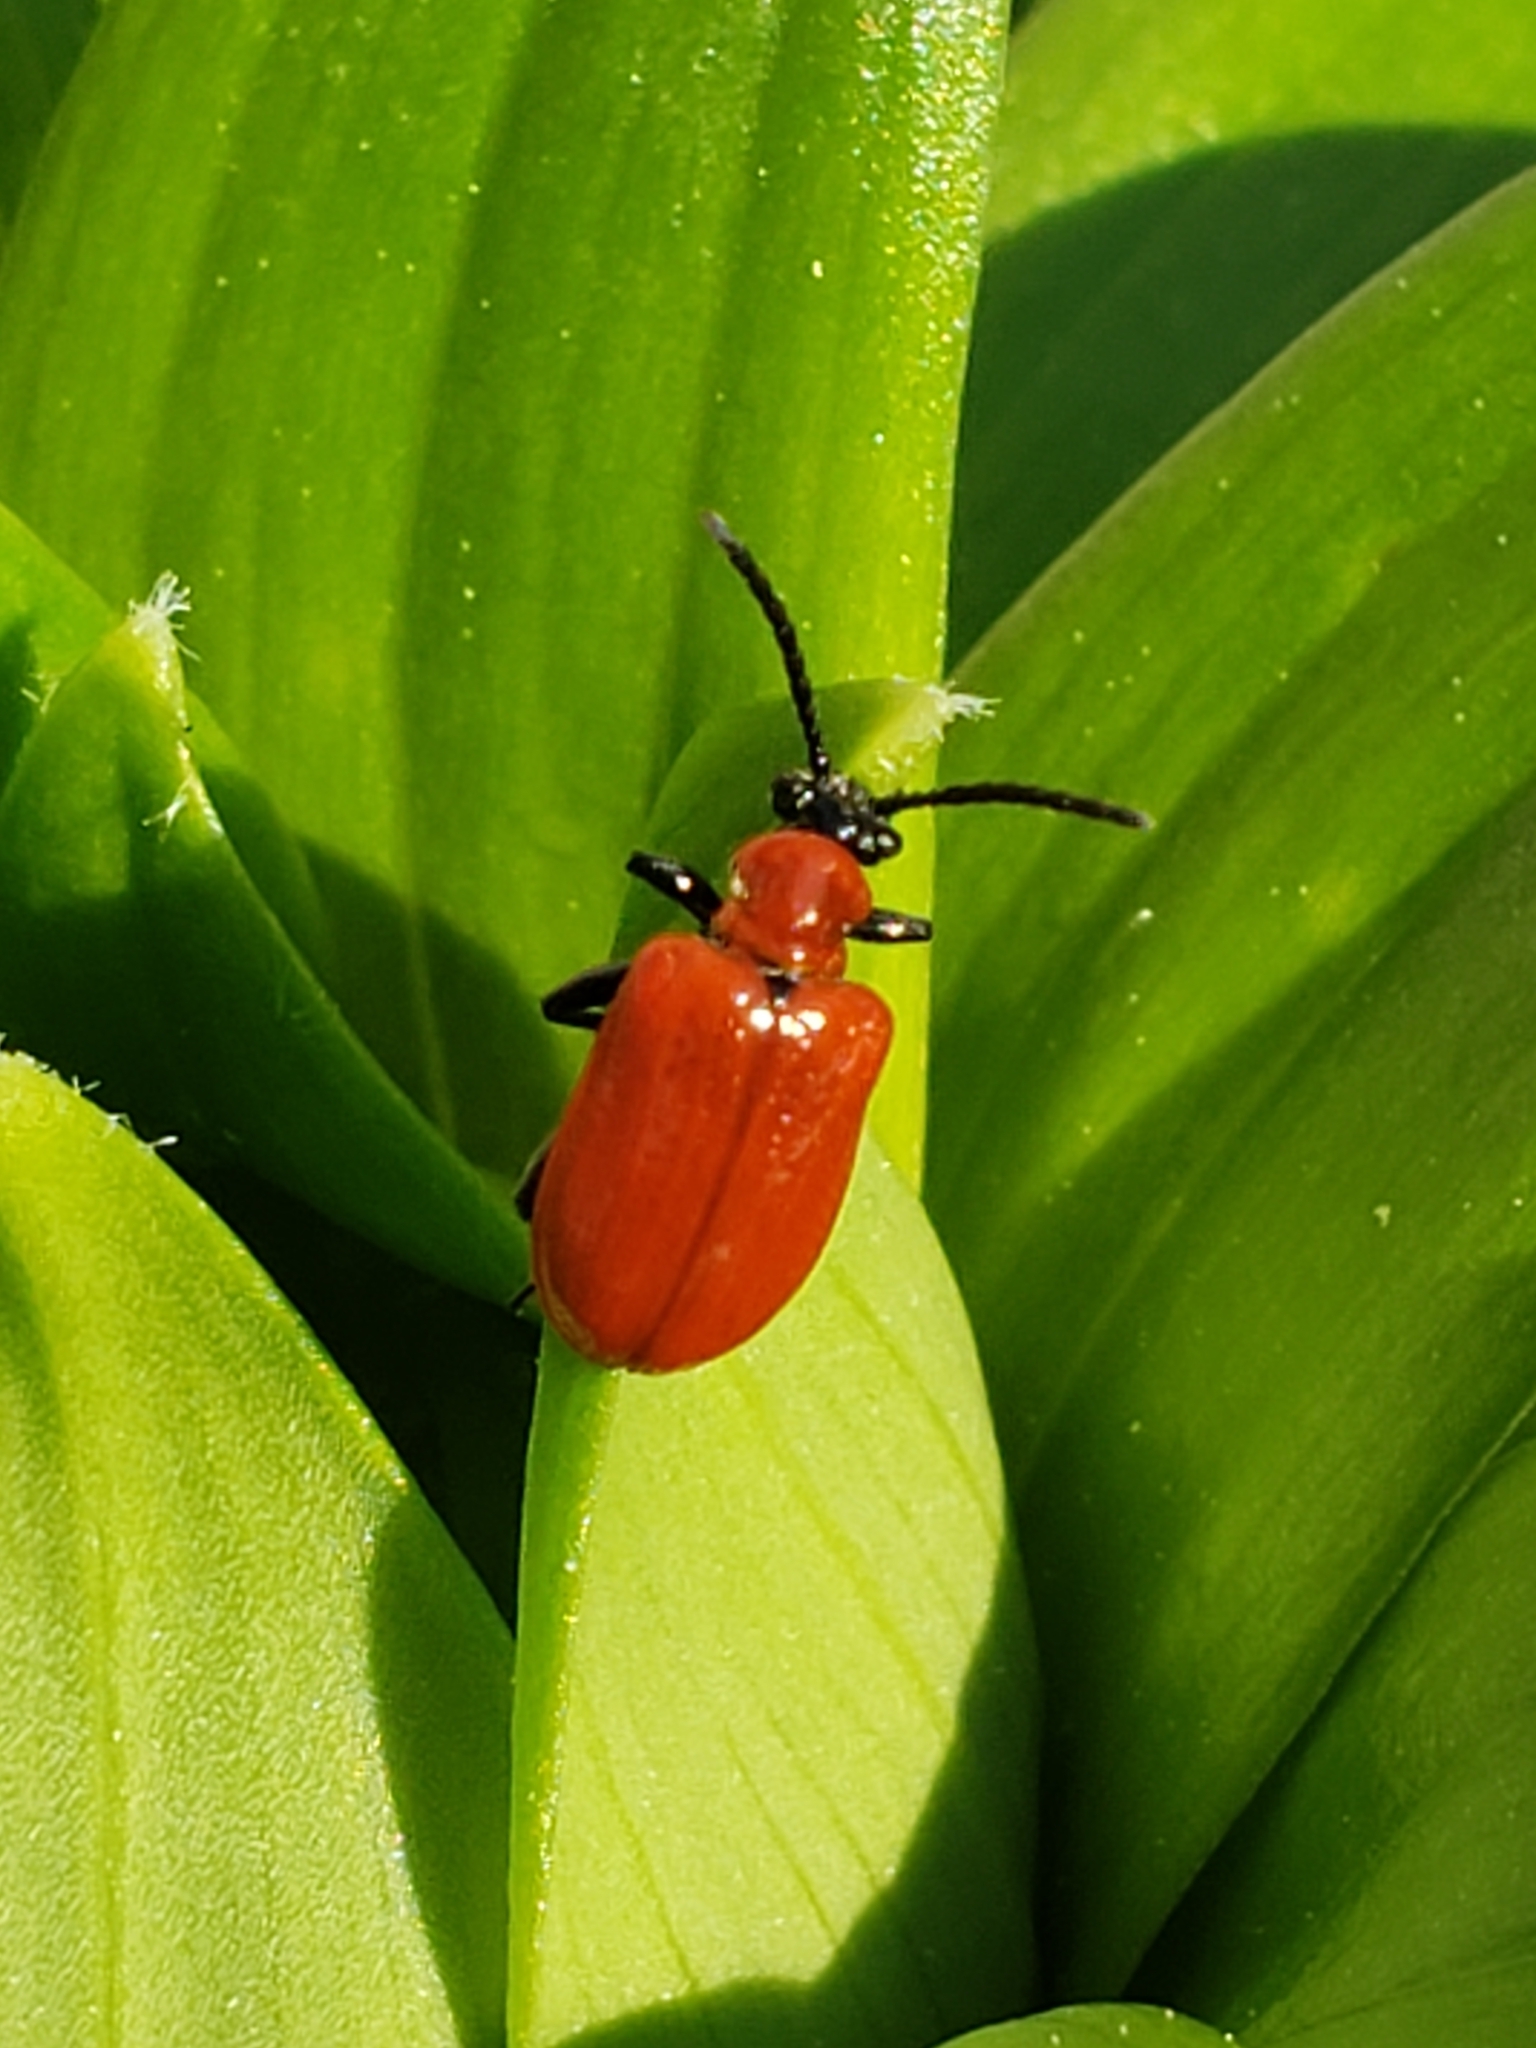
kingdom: Animalia
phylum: Arthropoda
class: Insecta
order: Coleoptera
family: Chrysomelidae
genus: Lilioceris
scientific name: Lilioceris lilii
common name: Lily beetle
